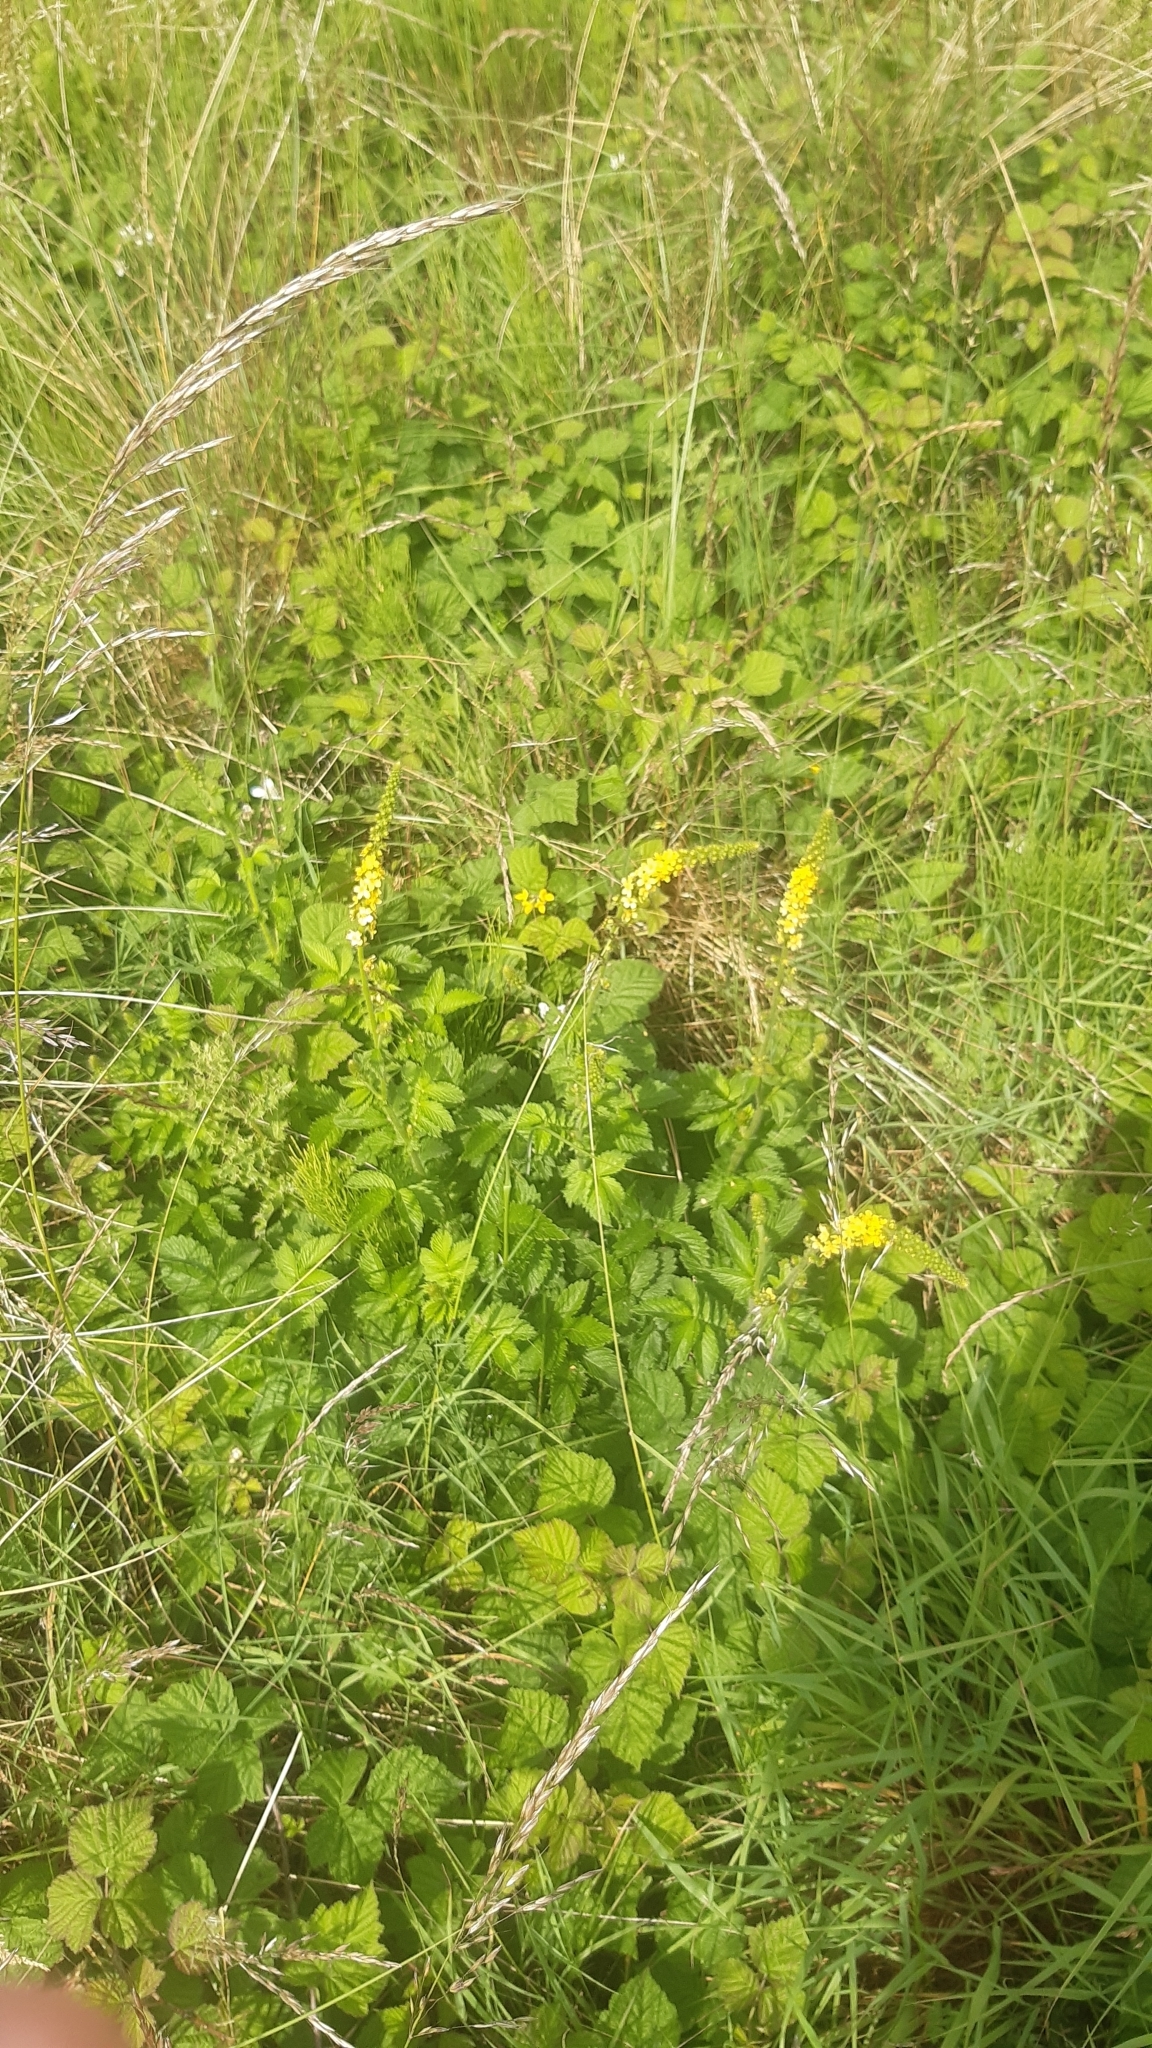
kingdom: Plantae
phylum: Tracheophyta
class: Magnoliopsida
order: Rosales
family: Rosaceae
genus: Agrimonia
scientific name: Agrimonia eupatoria
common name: Agrimony
